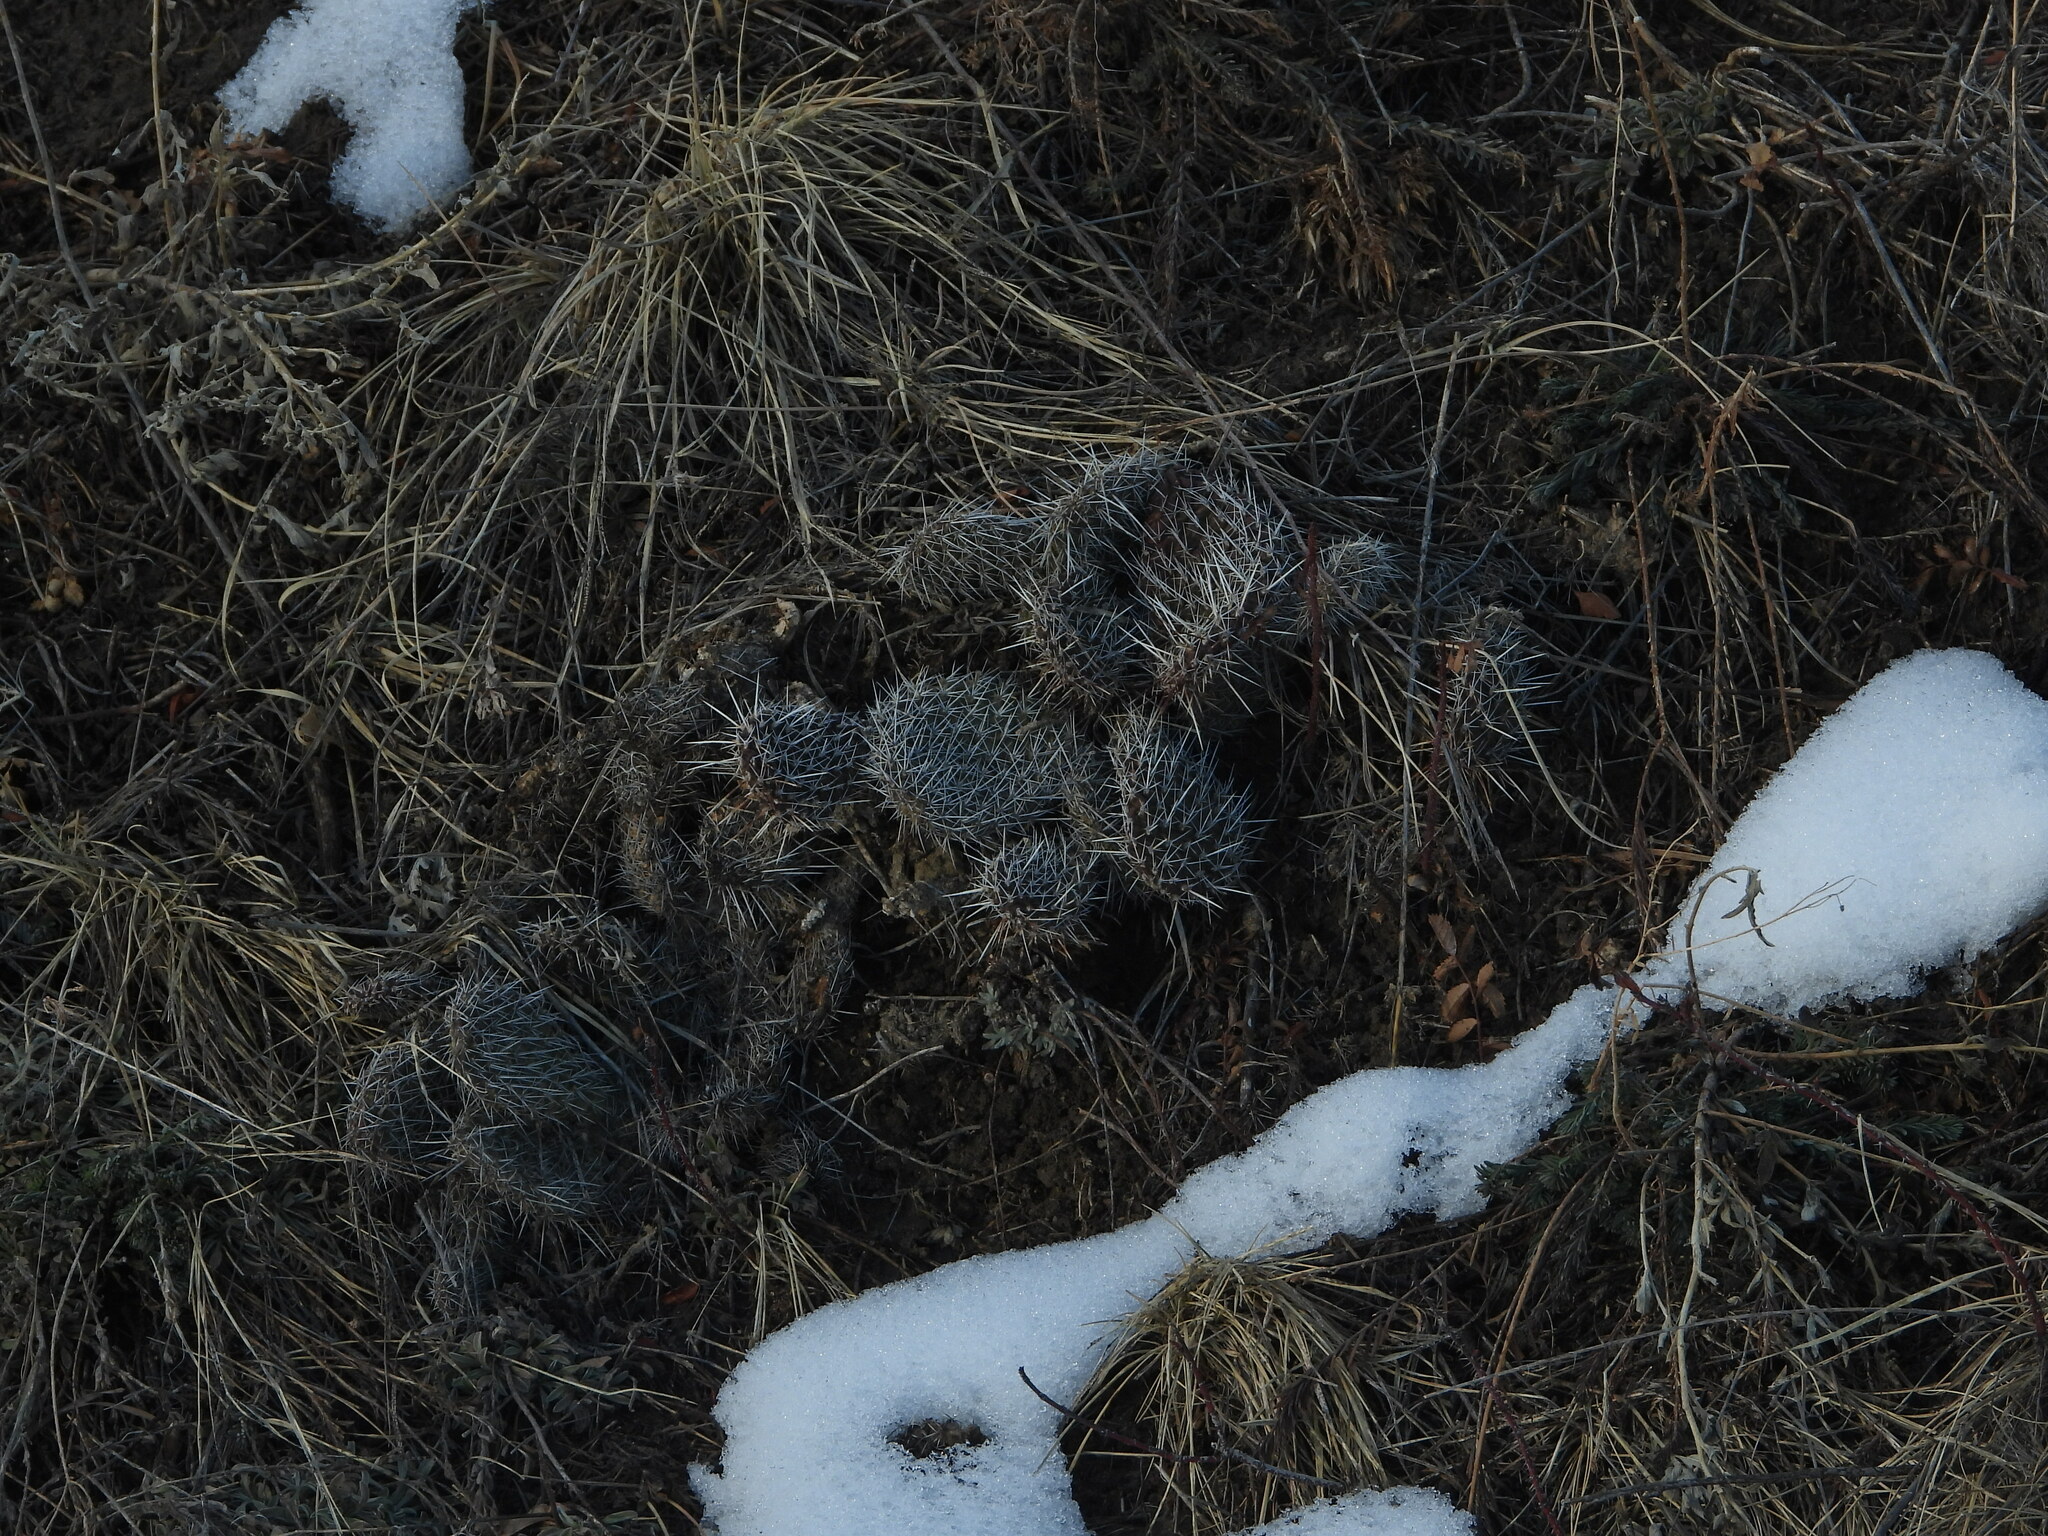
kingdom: Plantae
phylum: Tracheophyta
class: Magnoliopsida
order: Caryophyllales
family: Cactaceae
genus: Opuntia
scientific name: Opuntia polyacantha
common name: Plains prickly-pear
